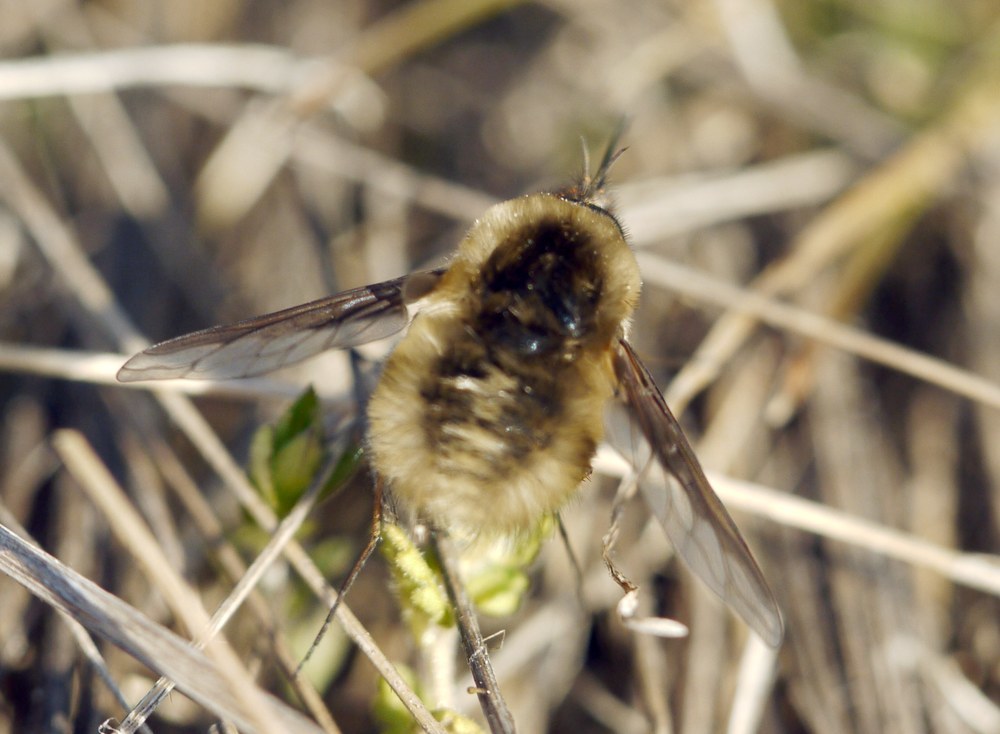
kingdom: Animalia
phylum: Arthropoda
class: Insecta
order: Diptera
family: Bombyliidae
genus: Bombylius
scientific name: Bombylius major
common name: Bee fly
